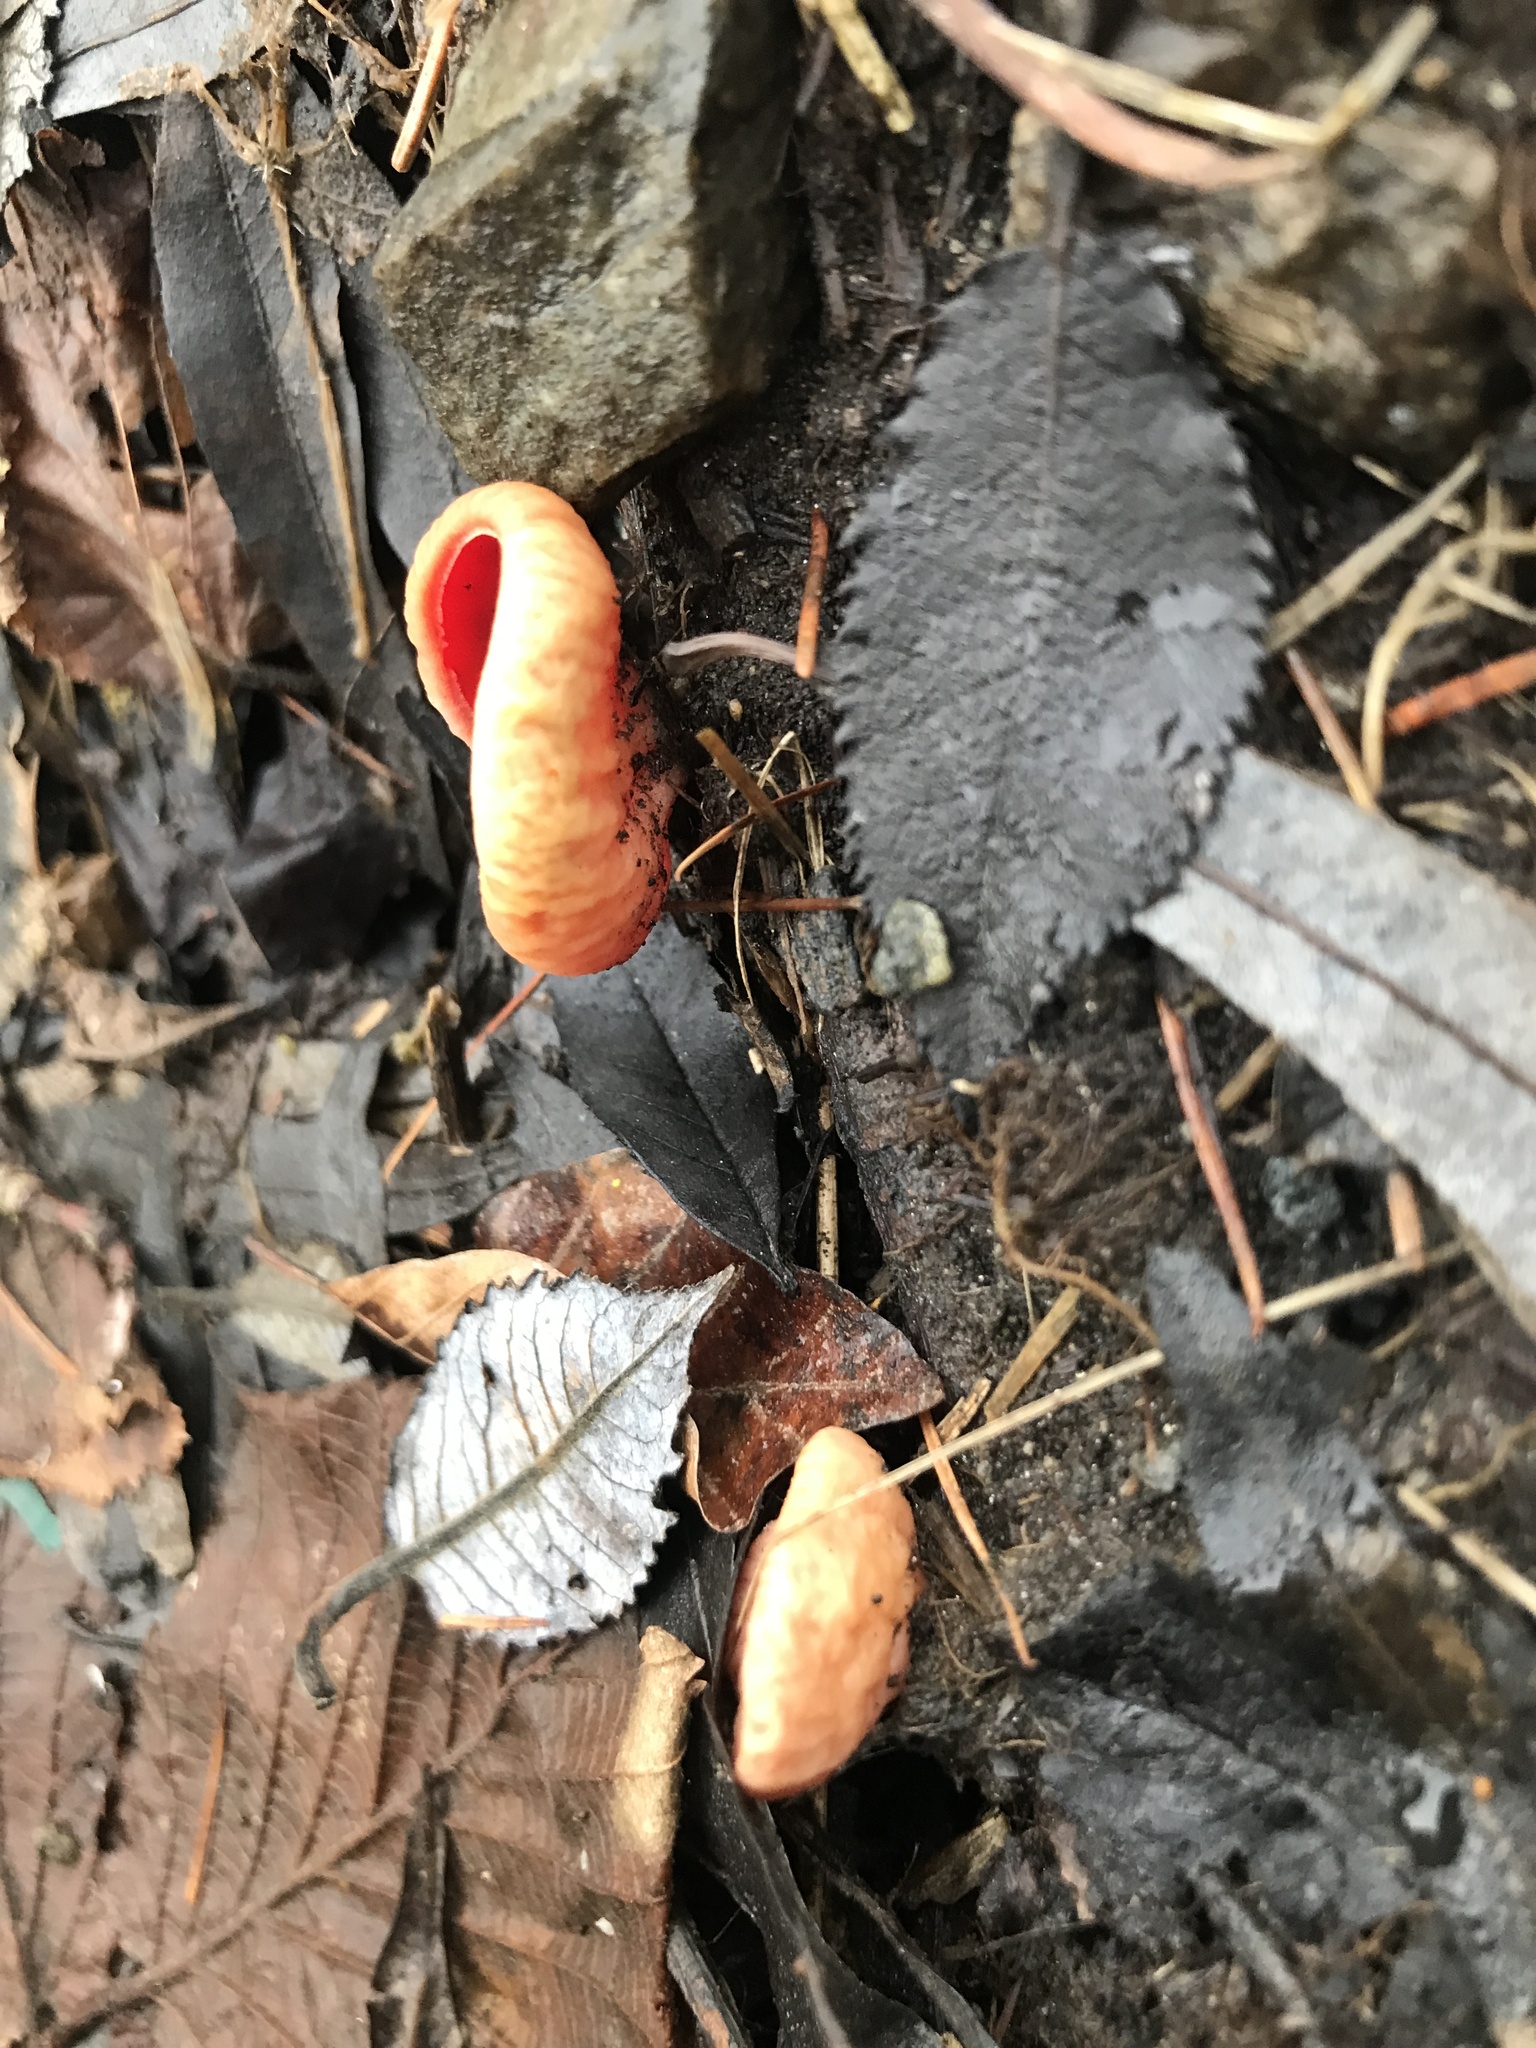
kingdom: Fungi
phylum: Ascomycota
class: Pezizomycetes
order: Pezizales
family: Sarcoscyphaceae
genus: Sarcoscypha
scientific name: Sarcoscypha
